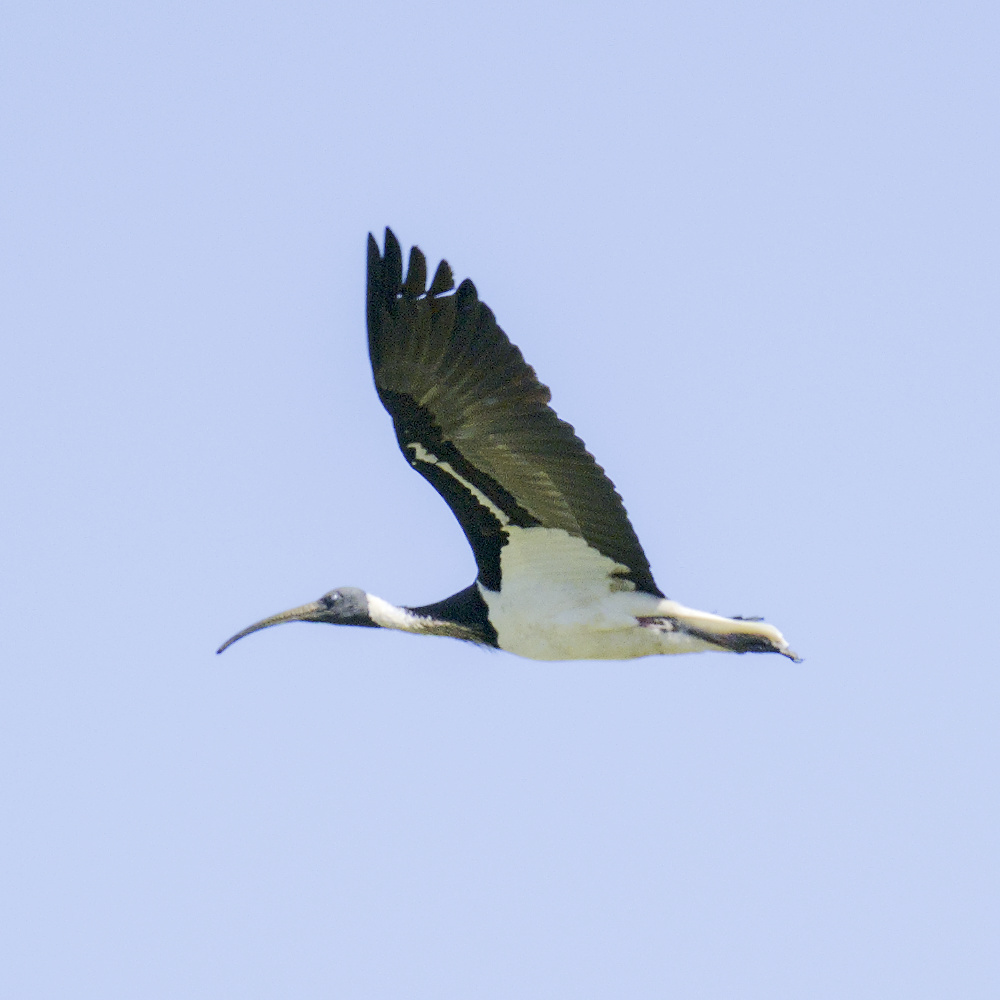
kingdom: Animalia
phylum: Chordata
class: Aves
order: Pelecaniformes
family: Threskiornithidae
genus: Threskiornis
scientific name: Threskiornis spinicollis
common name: Straw-necked ibis
